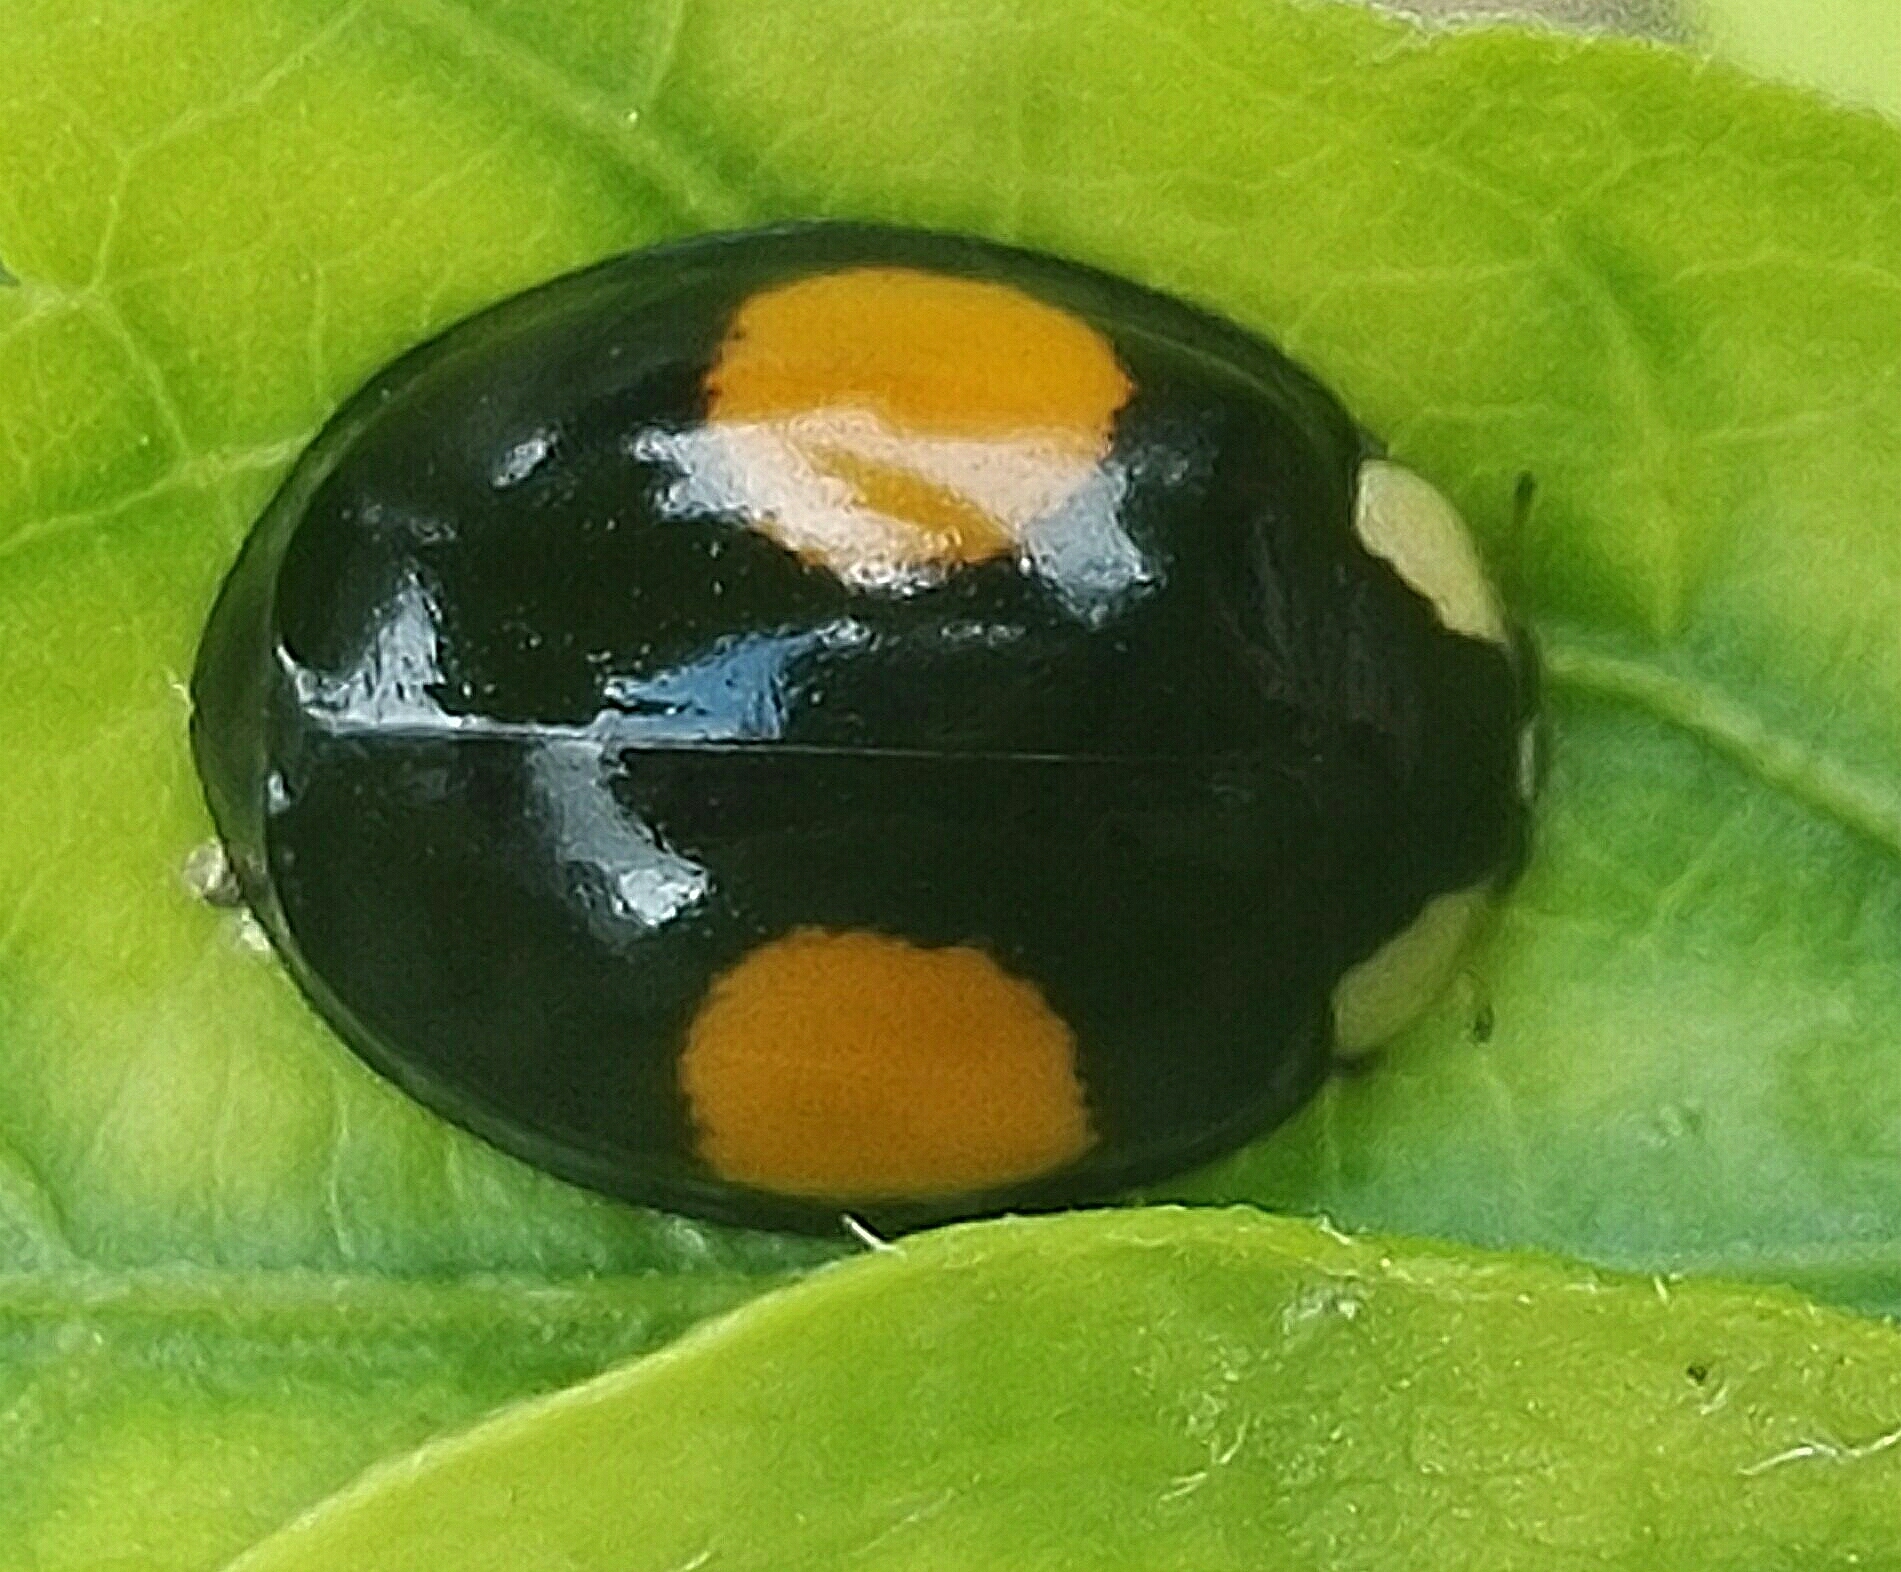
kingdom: Animalia
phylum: Arthropoda
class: Insecta
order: Coleoptera
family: Coccinellidae
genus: Harmonia
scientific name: Harmonia axyridis
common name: Harlequin ladybird
